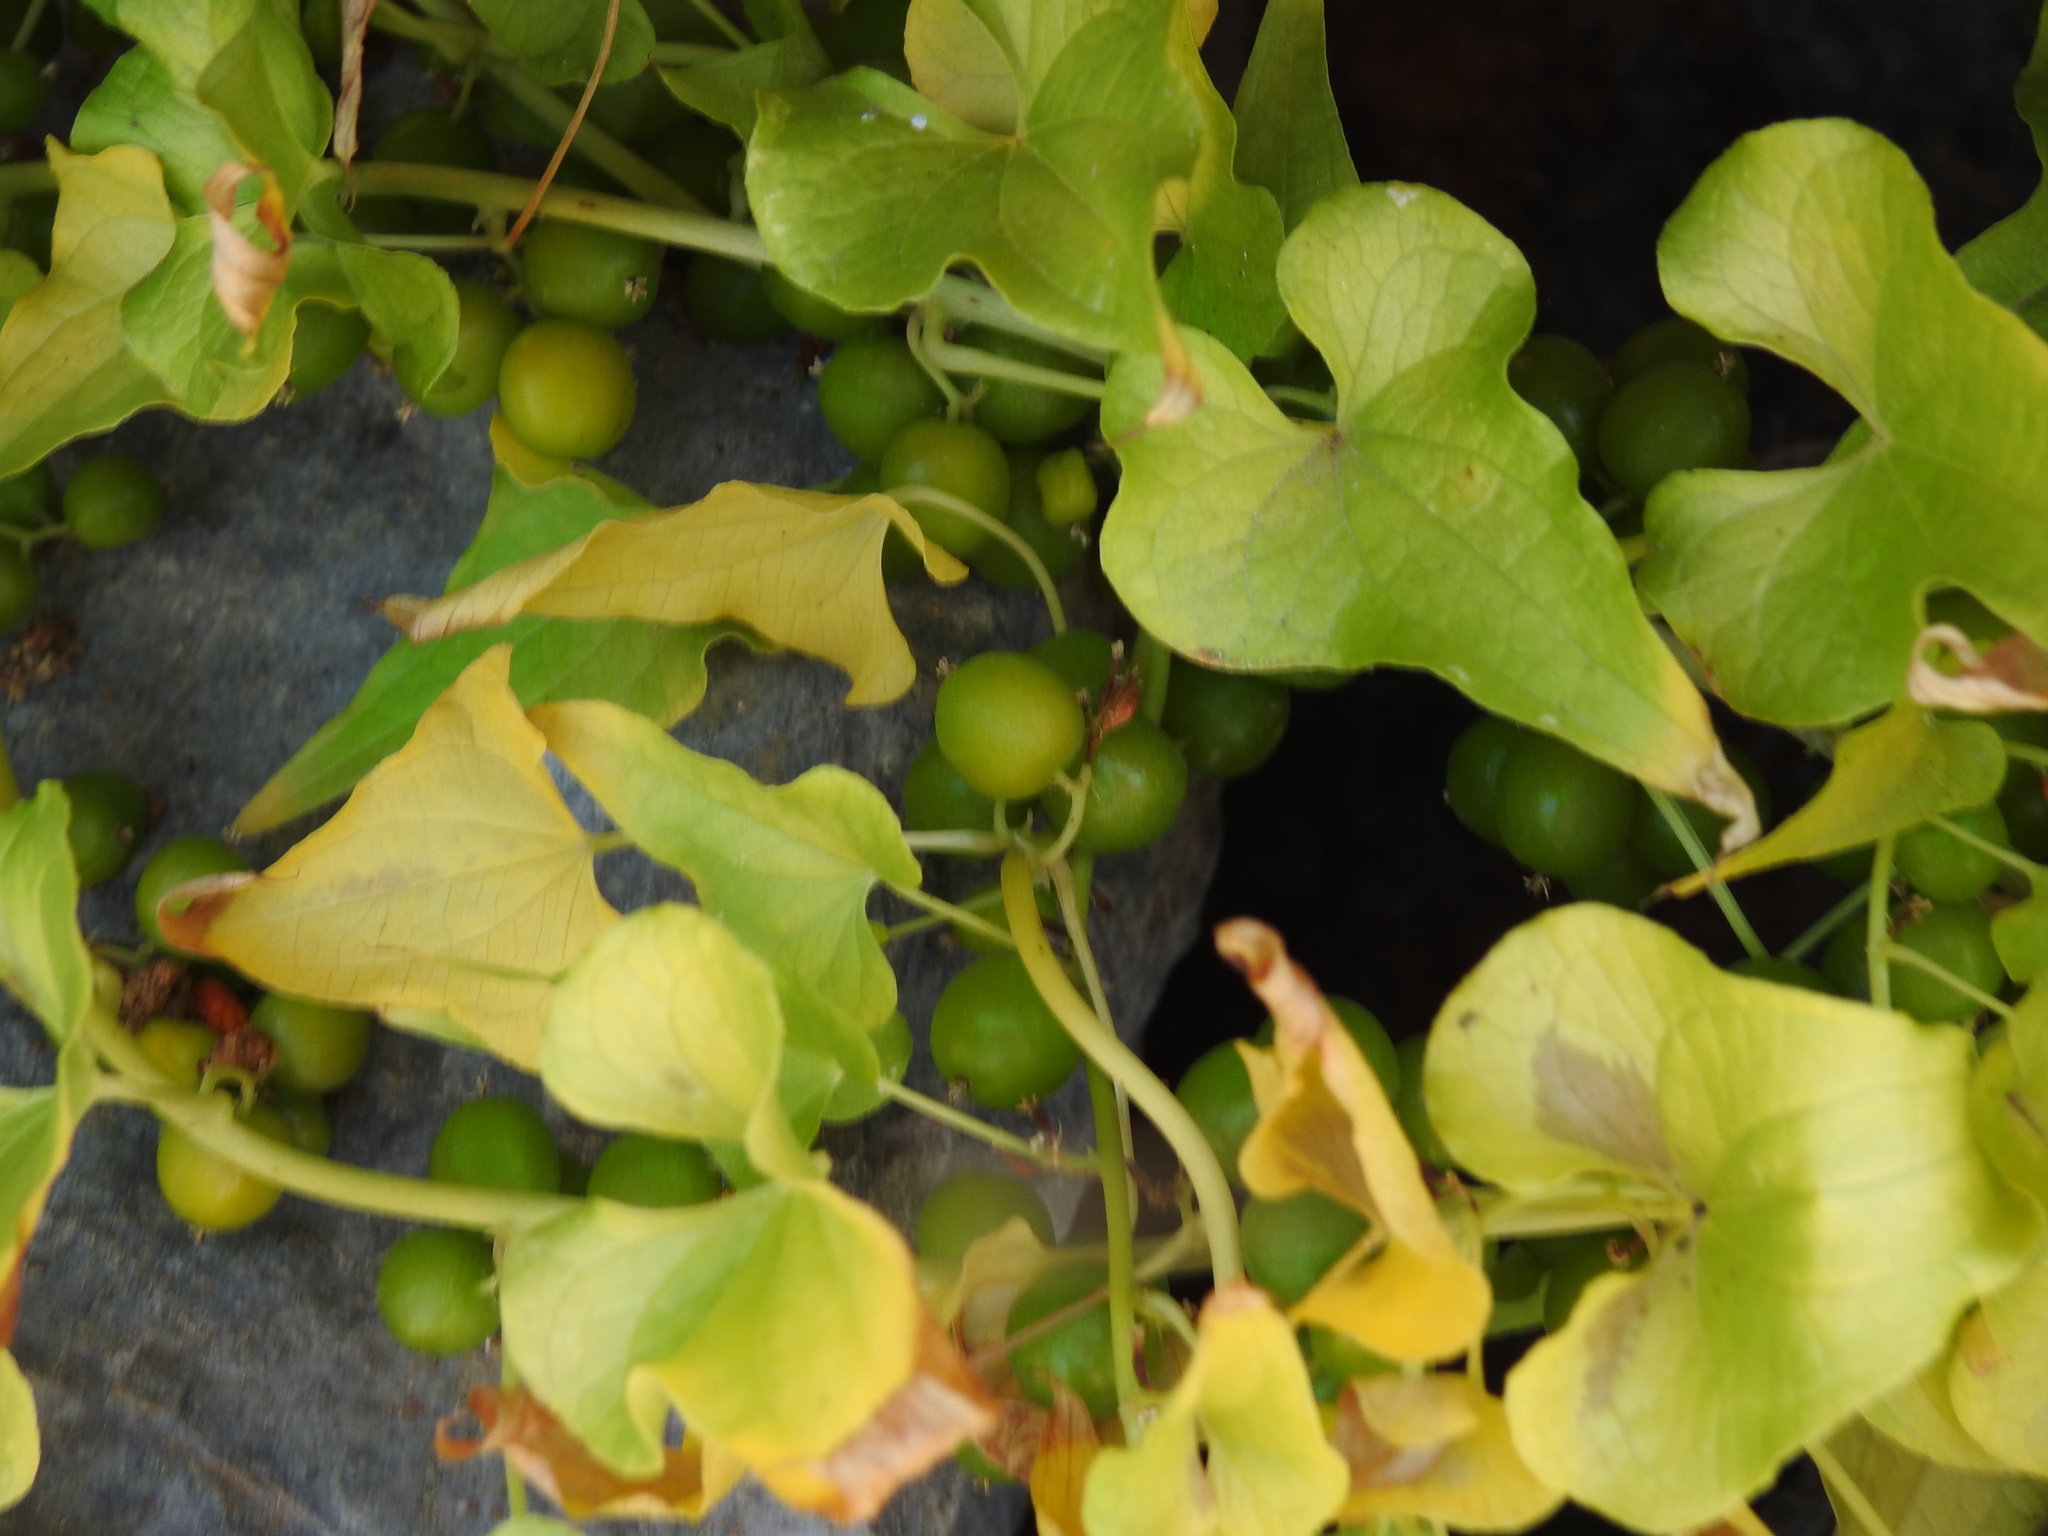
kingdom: Plantae
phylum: Tracheophyta
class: Liliopsida
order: Dioscoreales
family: Dioscoreaceae
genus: Dioscorea
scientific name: Dioscorea communis
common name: Black-bindweed
